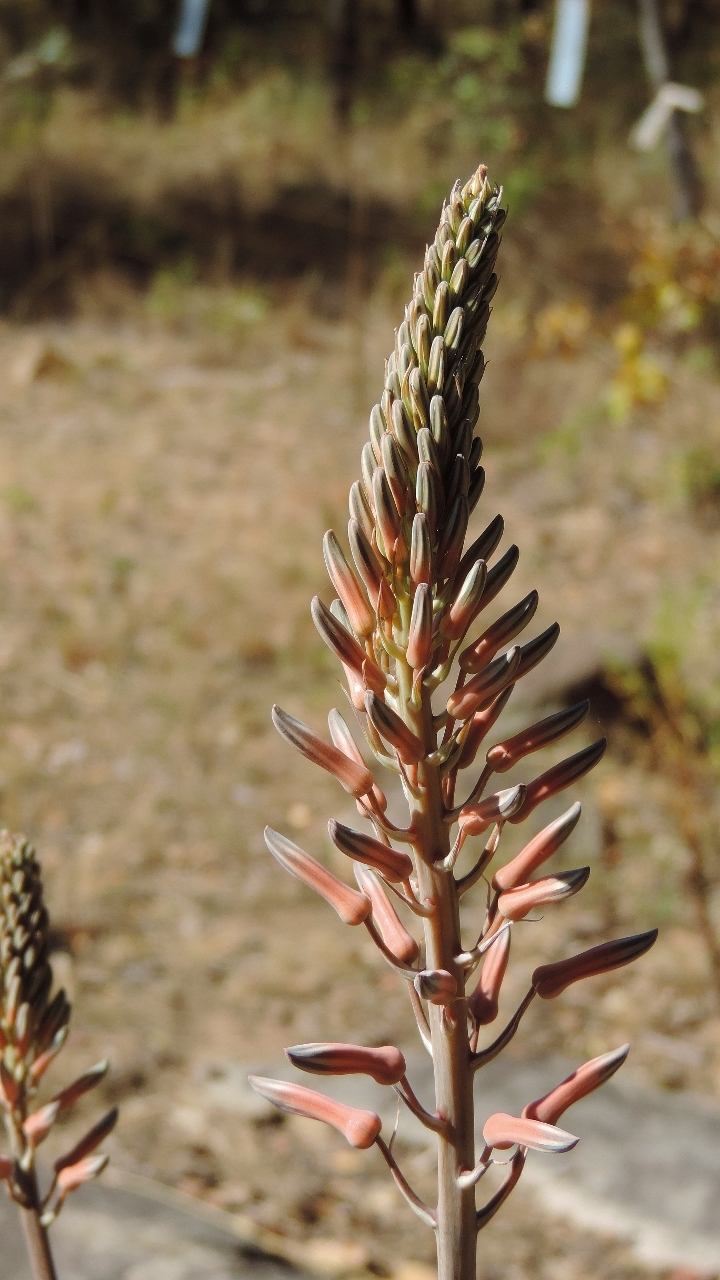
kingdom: Plantae
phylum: Tracheophyta
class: Liliopsida
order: Asparagales
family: Asphodelaceae
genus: Aloe
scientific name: Aloe greatheadii
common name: Greathead's aloe
